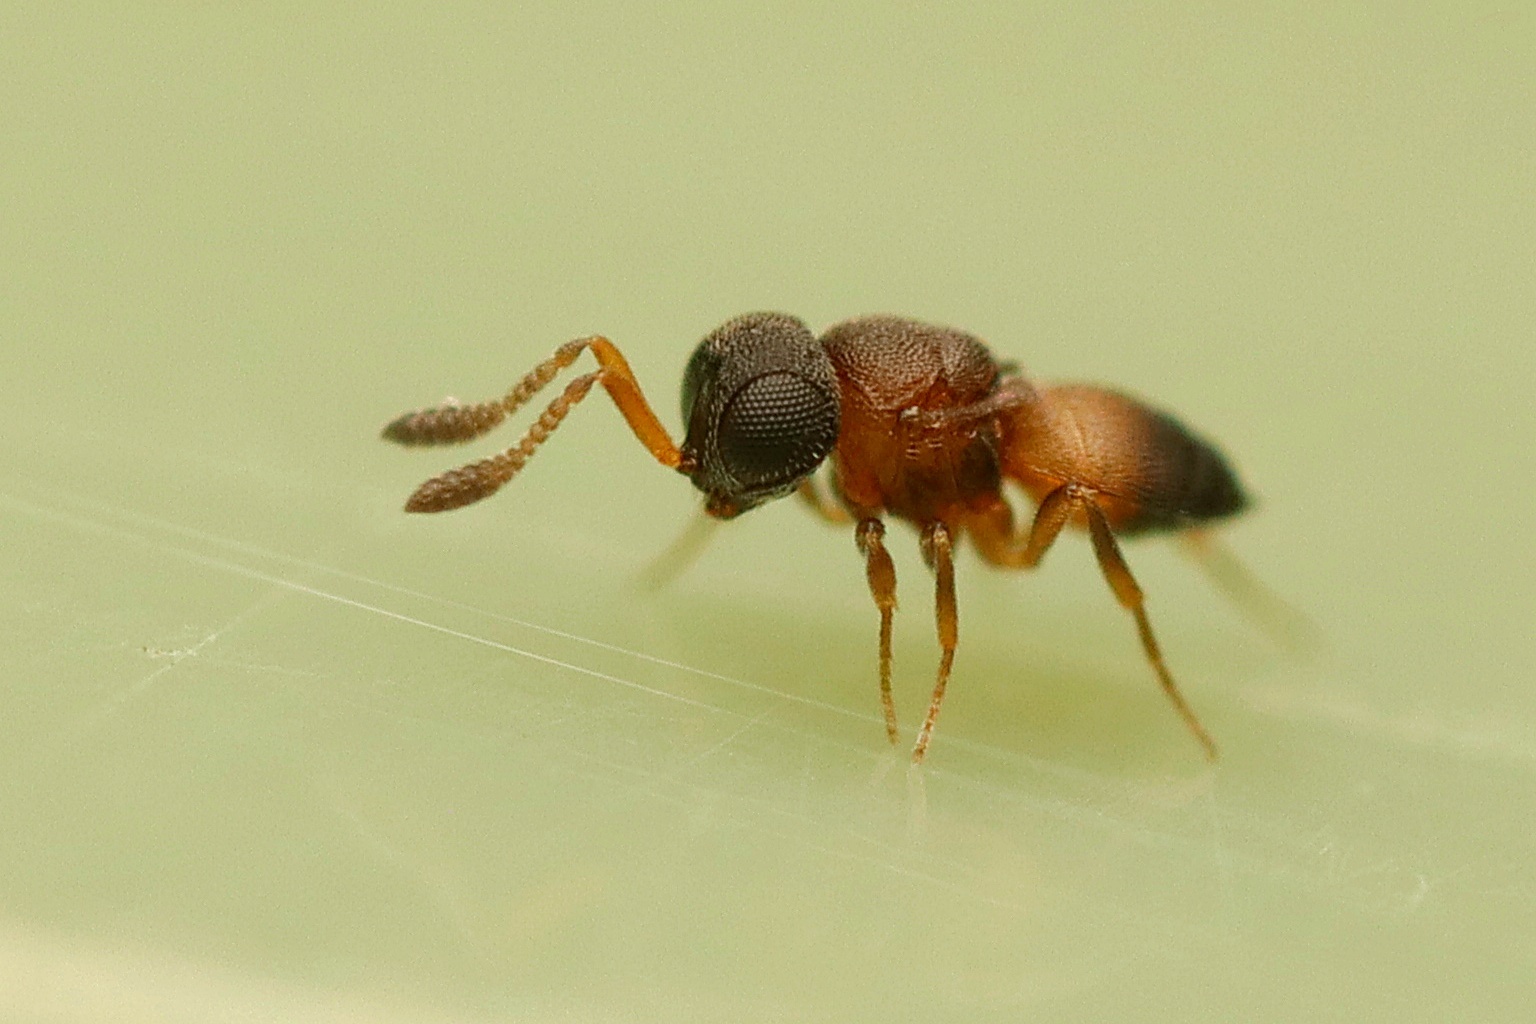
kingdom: Animalia
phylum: Arthropoda
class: Insecta
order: Hymenoptera
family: Scelionidae
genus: Gryon
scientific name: Gryon misellum
